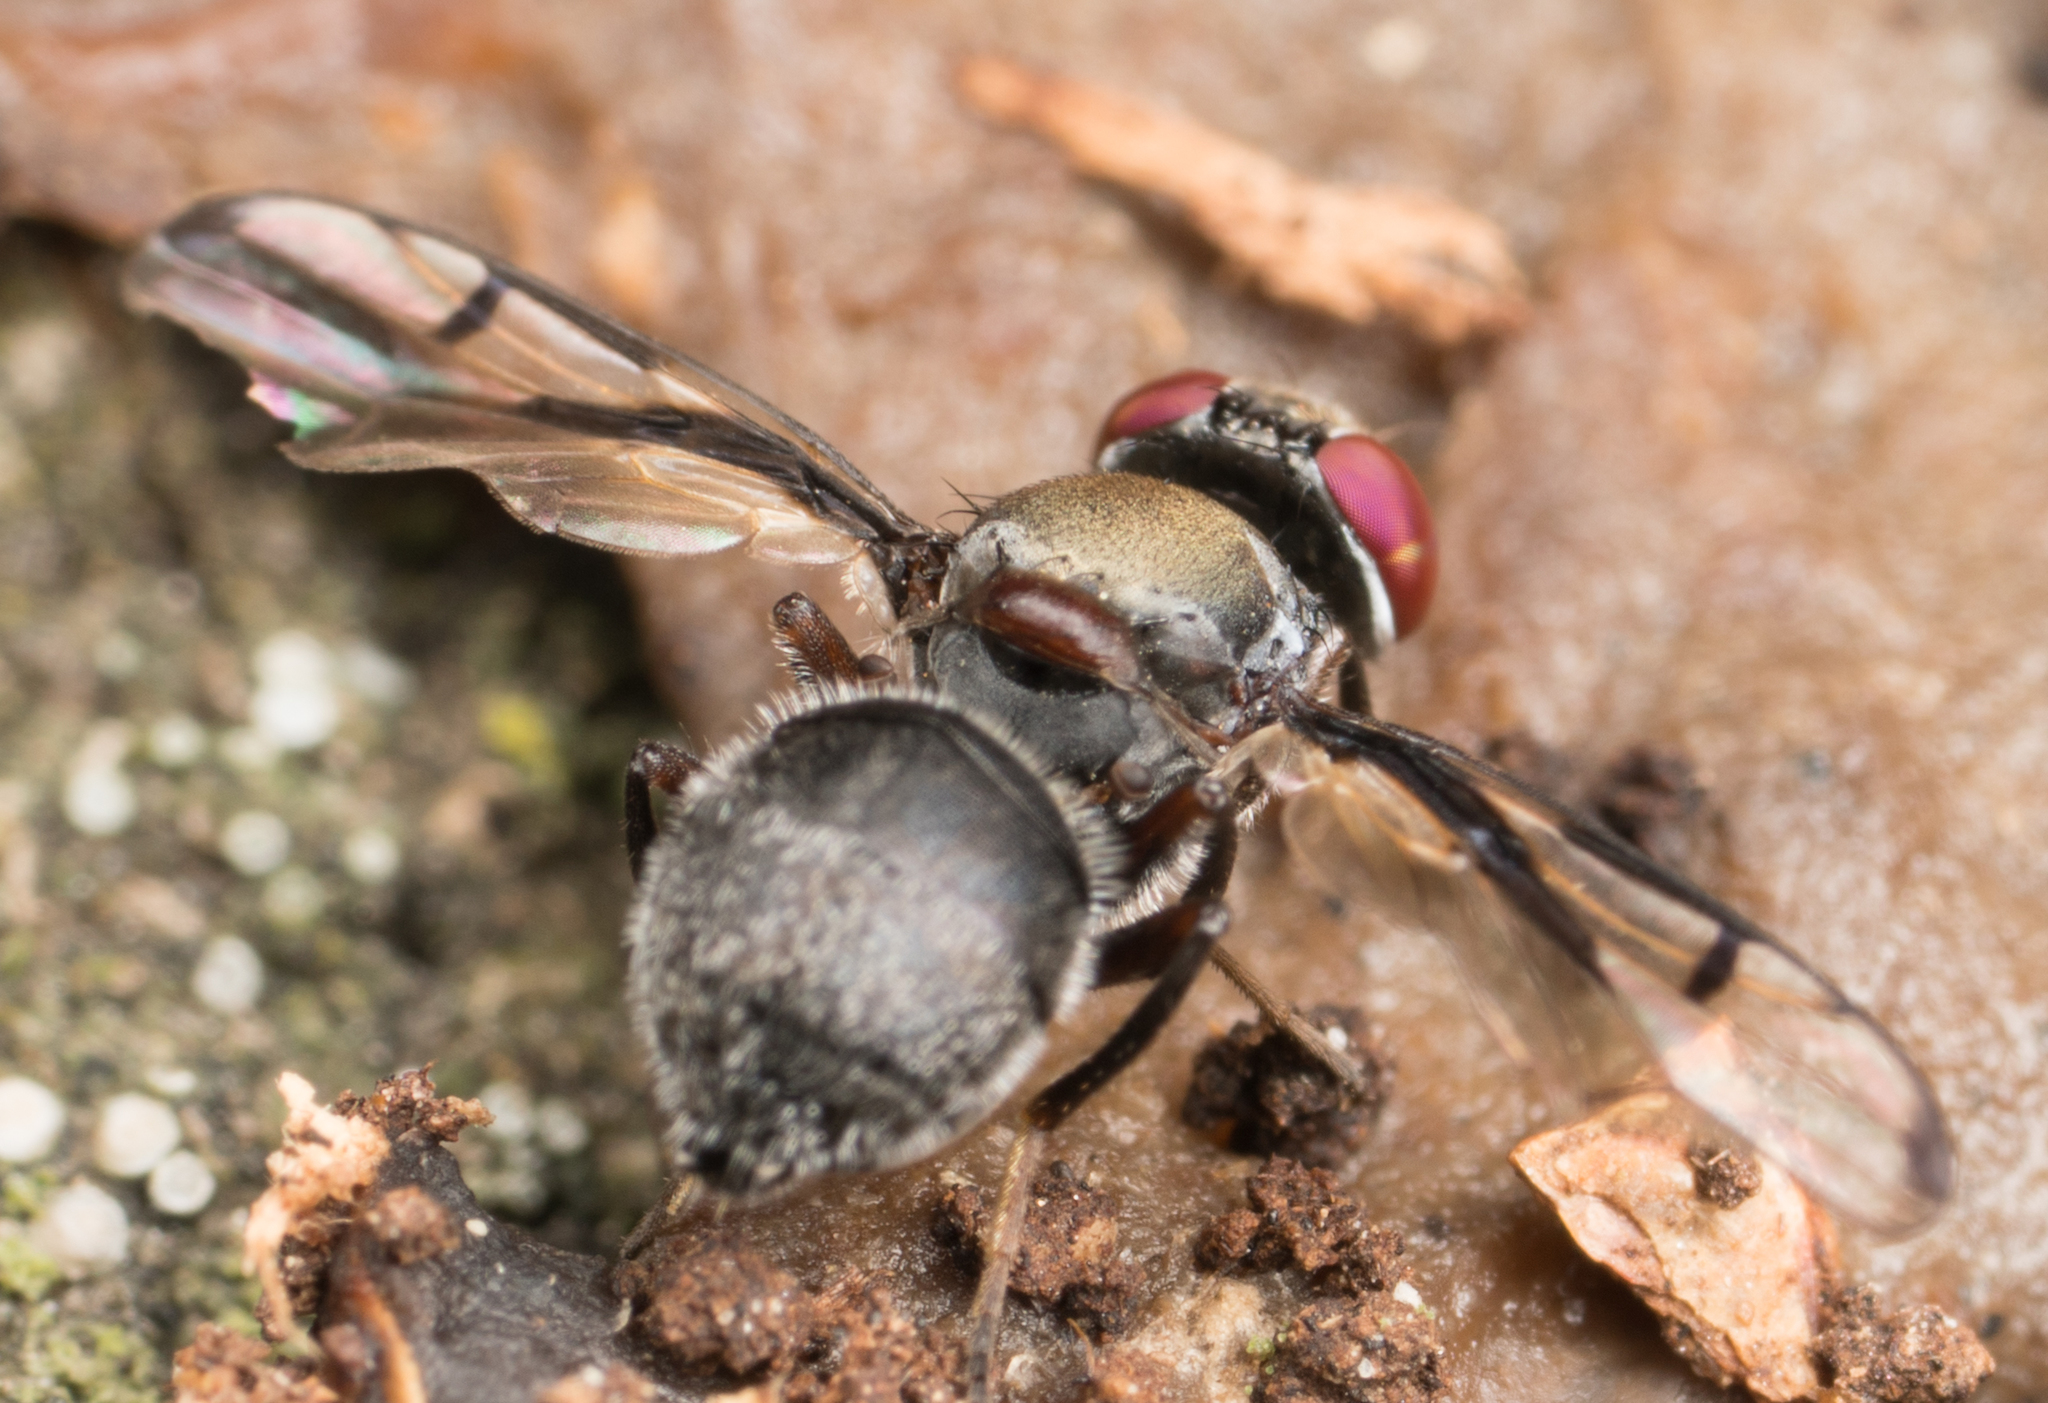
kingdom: Animalia
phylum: Arthropoda
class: Insecta
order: Diptera
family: Platystomatidae
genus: Pogonortalis
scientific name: Pogonortalis doclea
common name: Boatman fly
